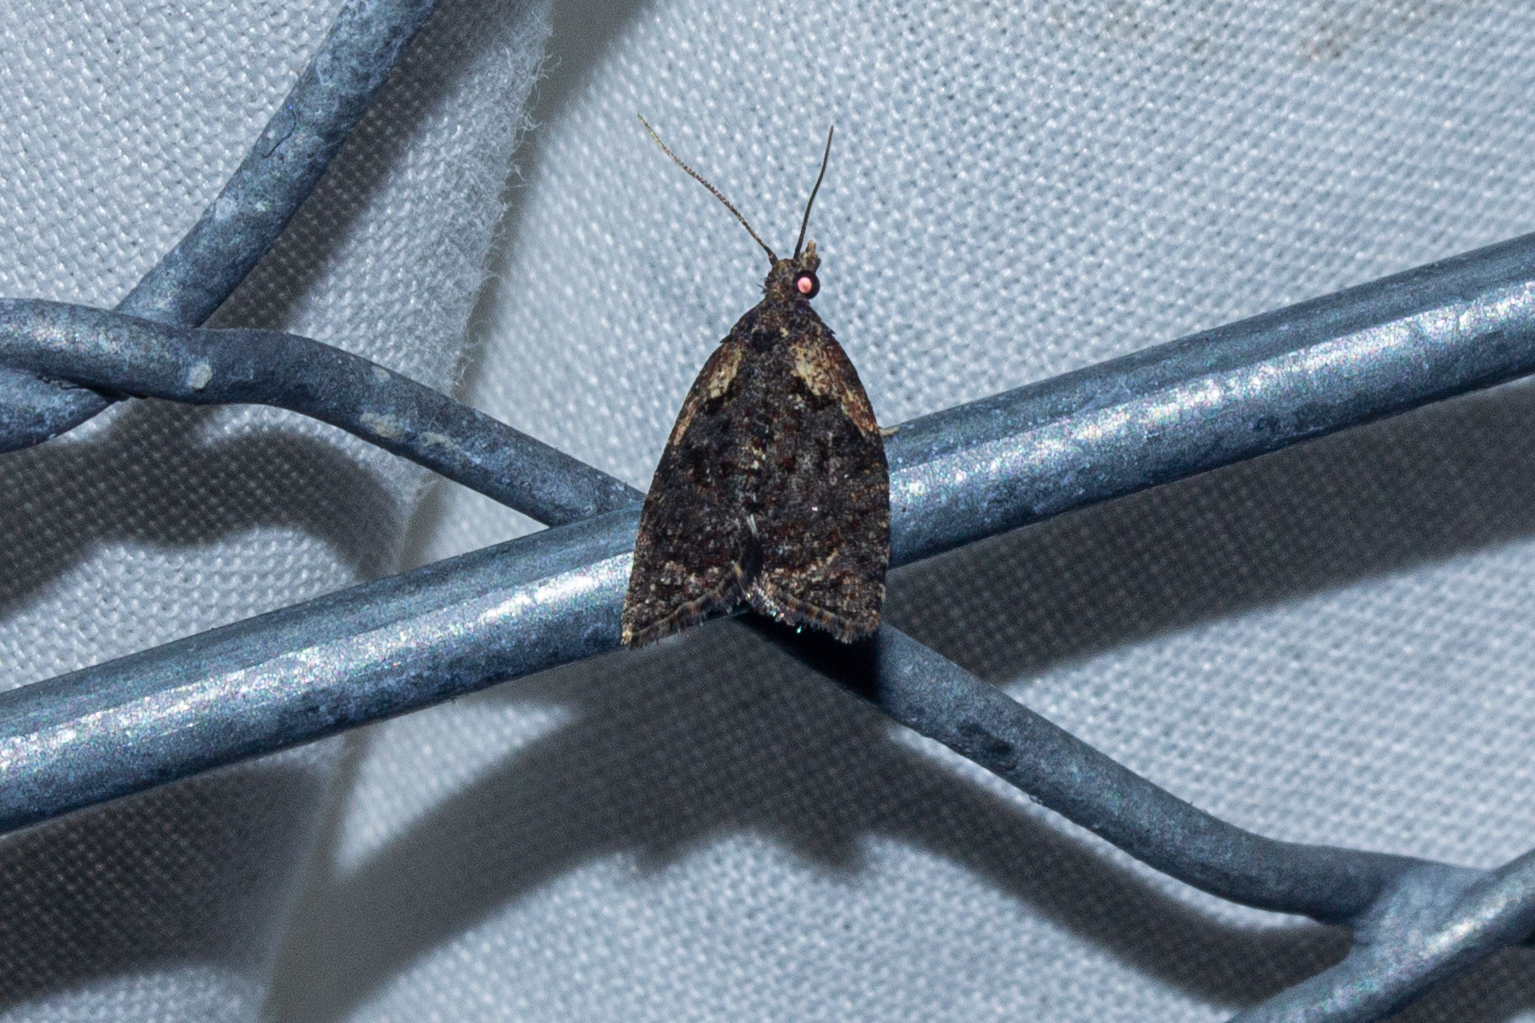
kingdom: Animalia
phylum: Arthropoda
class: Insecta
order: Lepidoptera
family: Tortricidae
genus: Capua
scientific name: Capua intractana
